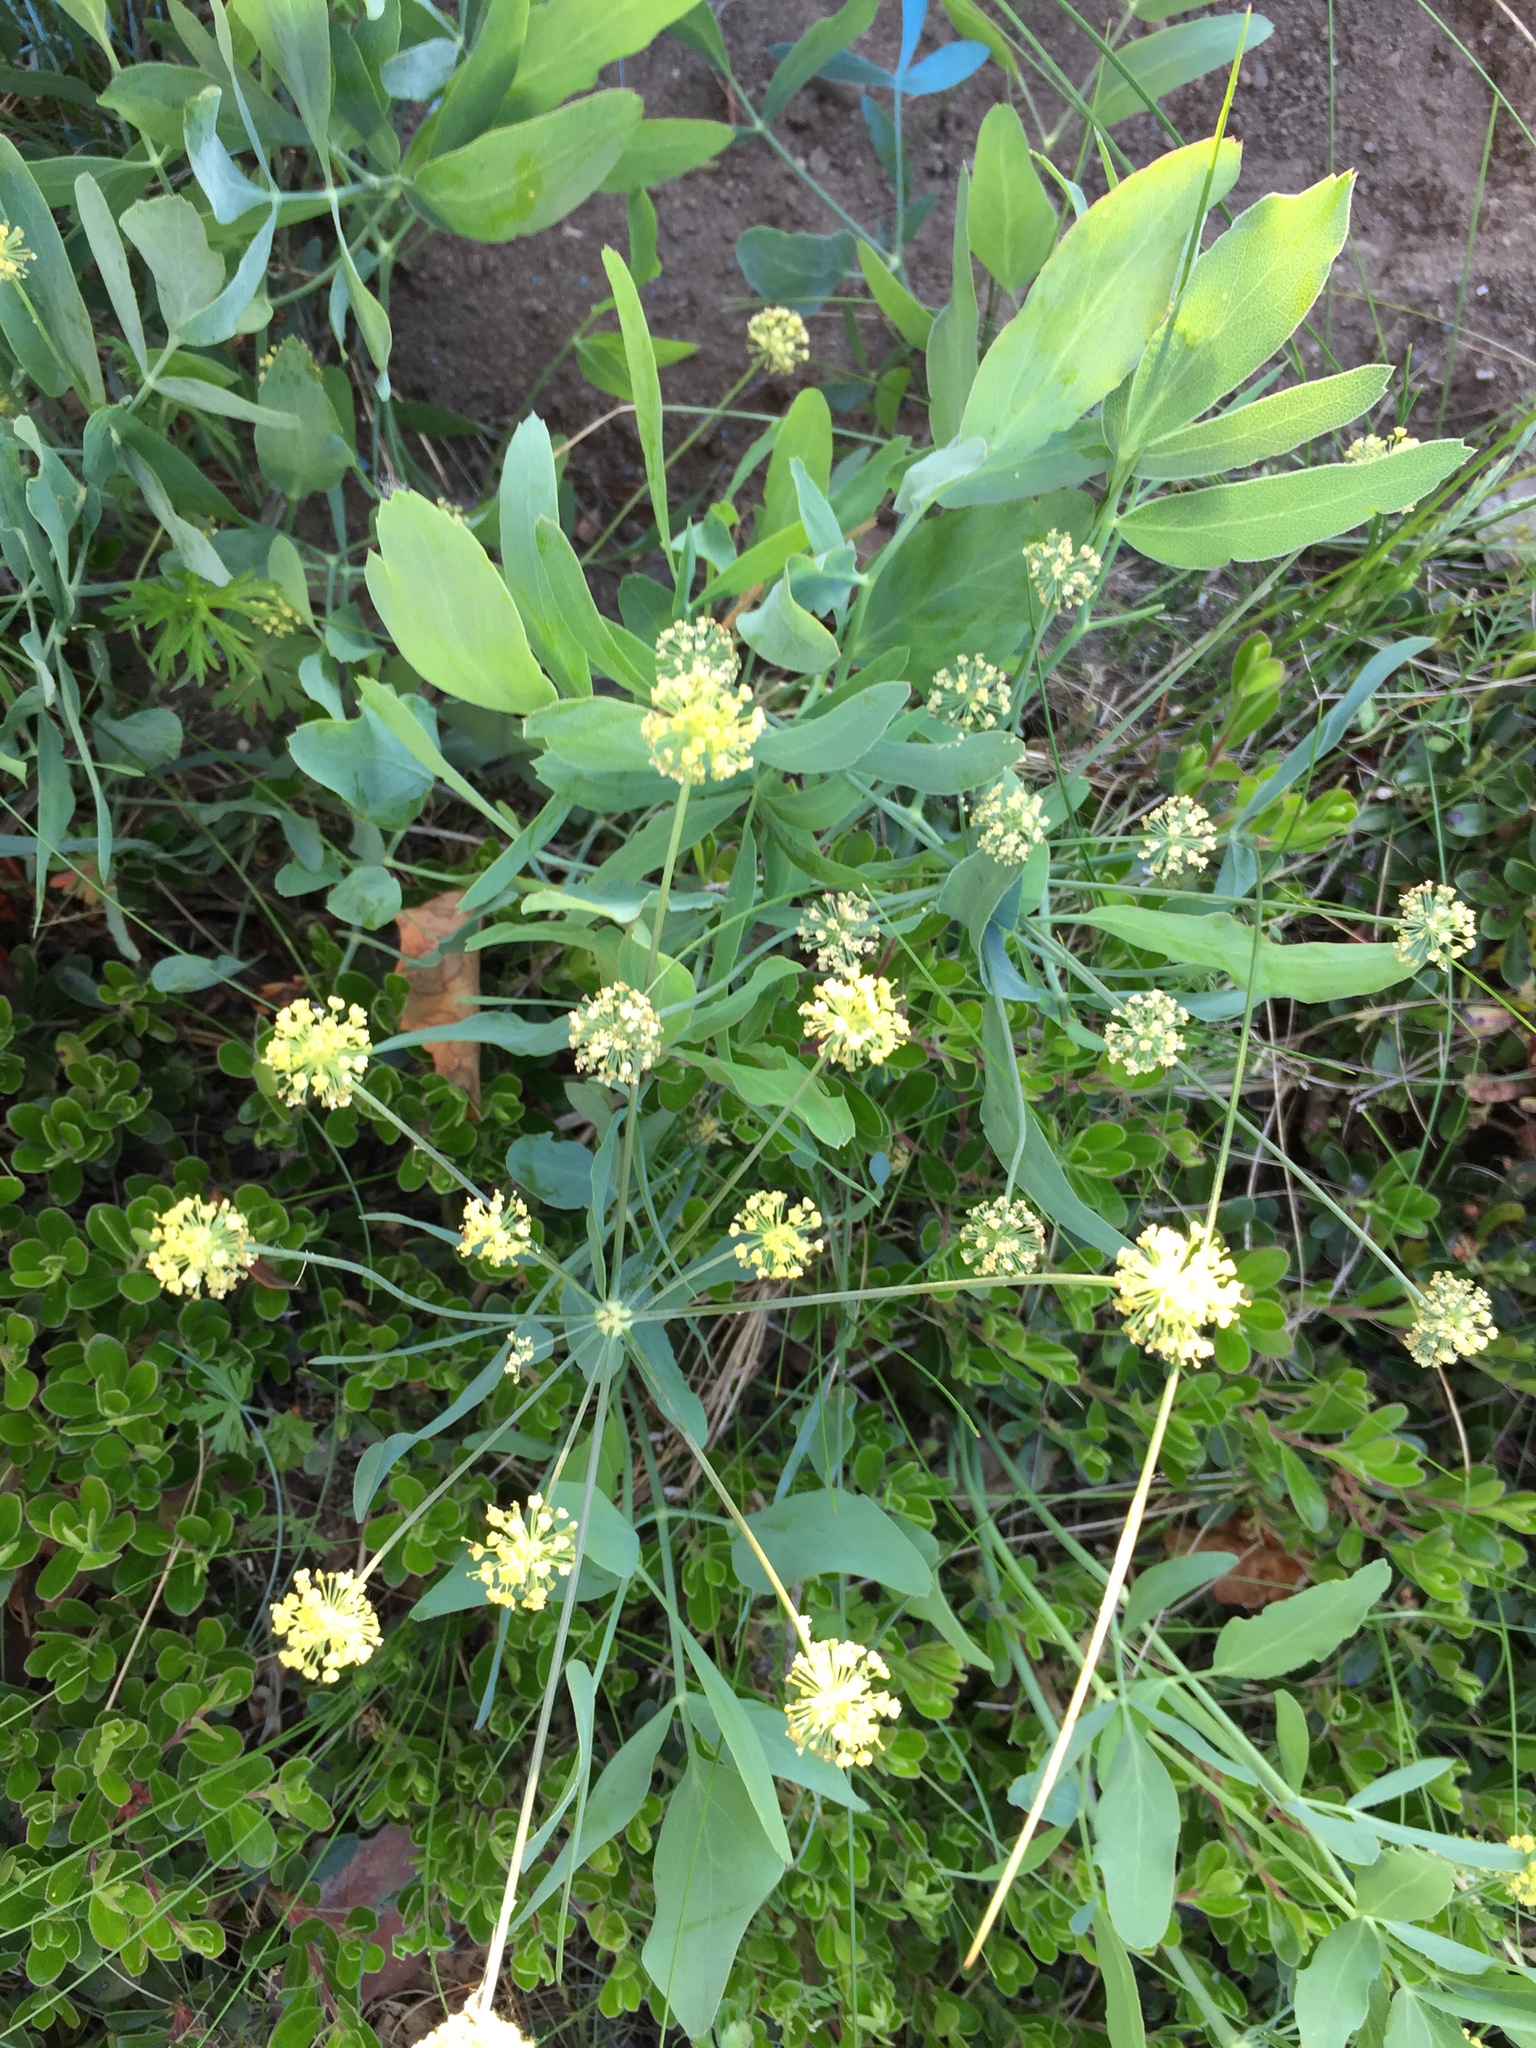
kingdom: Plantae
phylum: Tracheophyta
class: Magnoliopsida
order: Apiales
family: Apiaceae
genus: Lomatium
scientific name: Lomatium nudicaule
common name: Pestle lomatium
